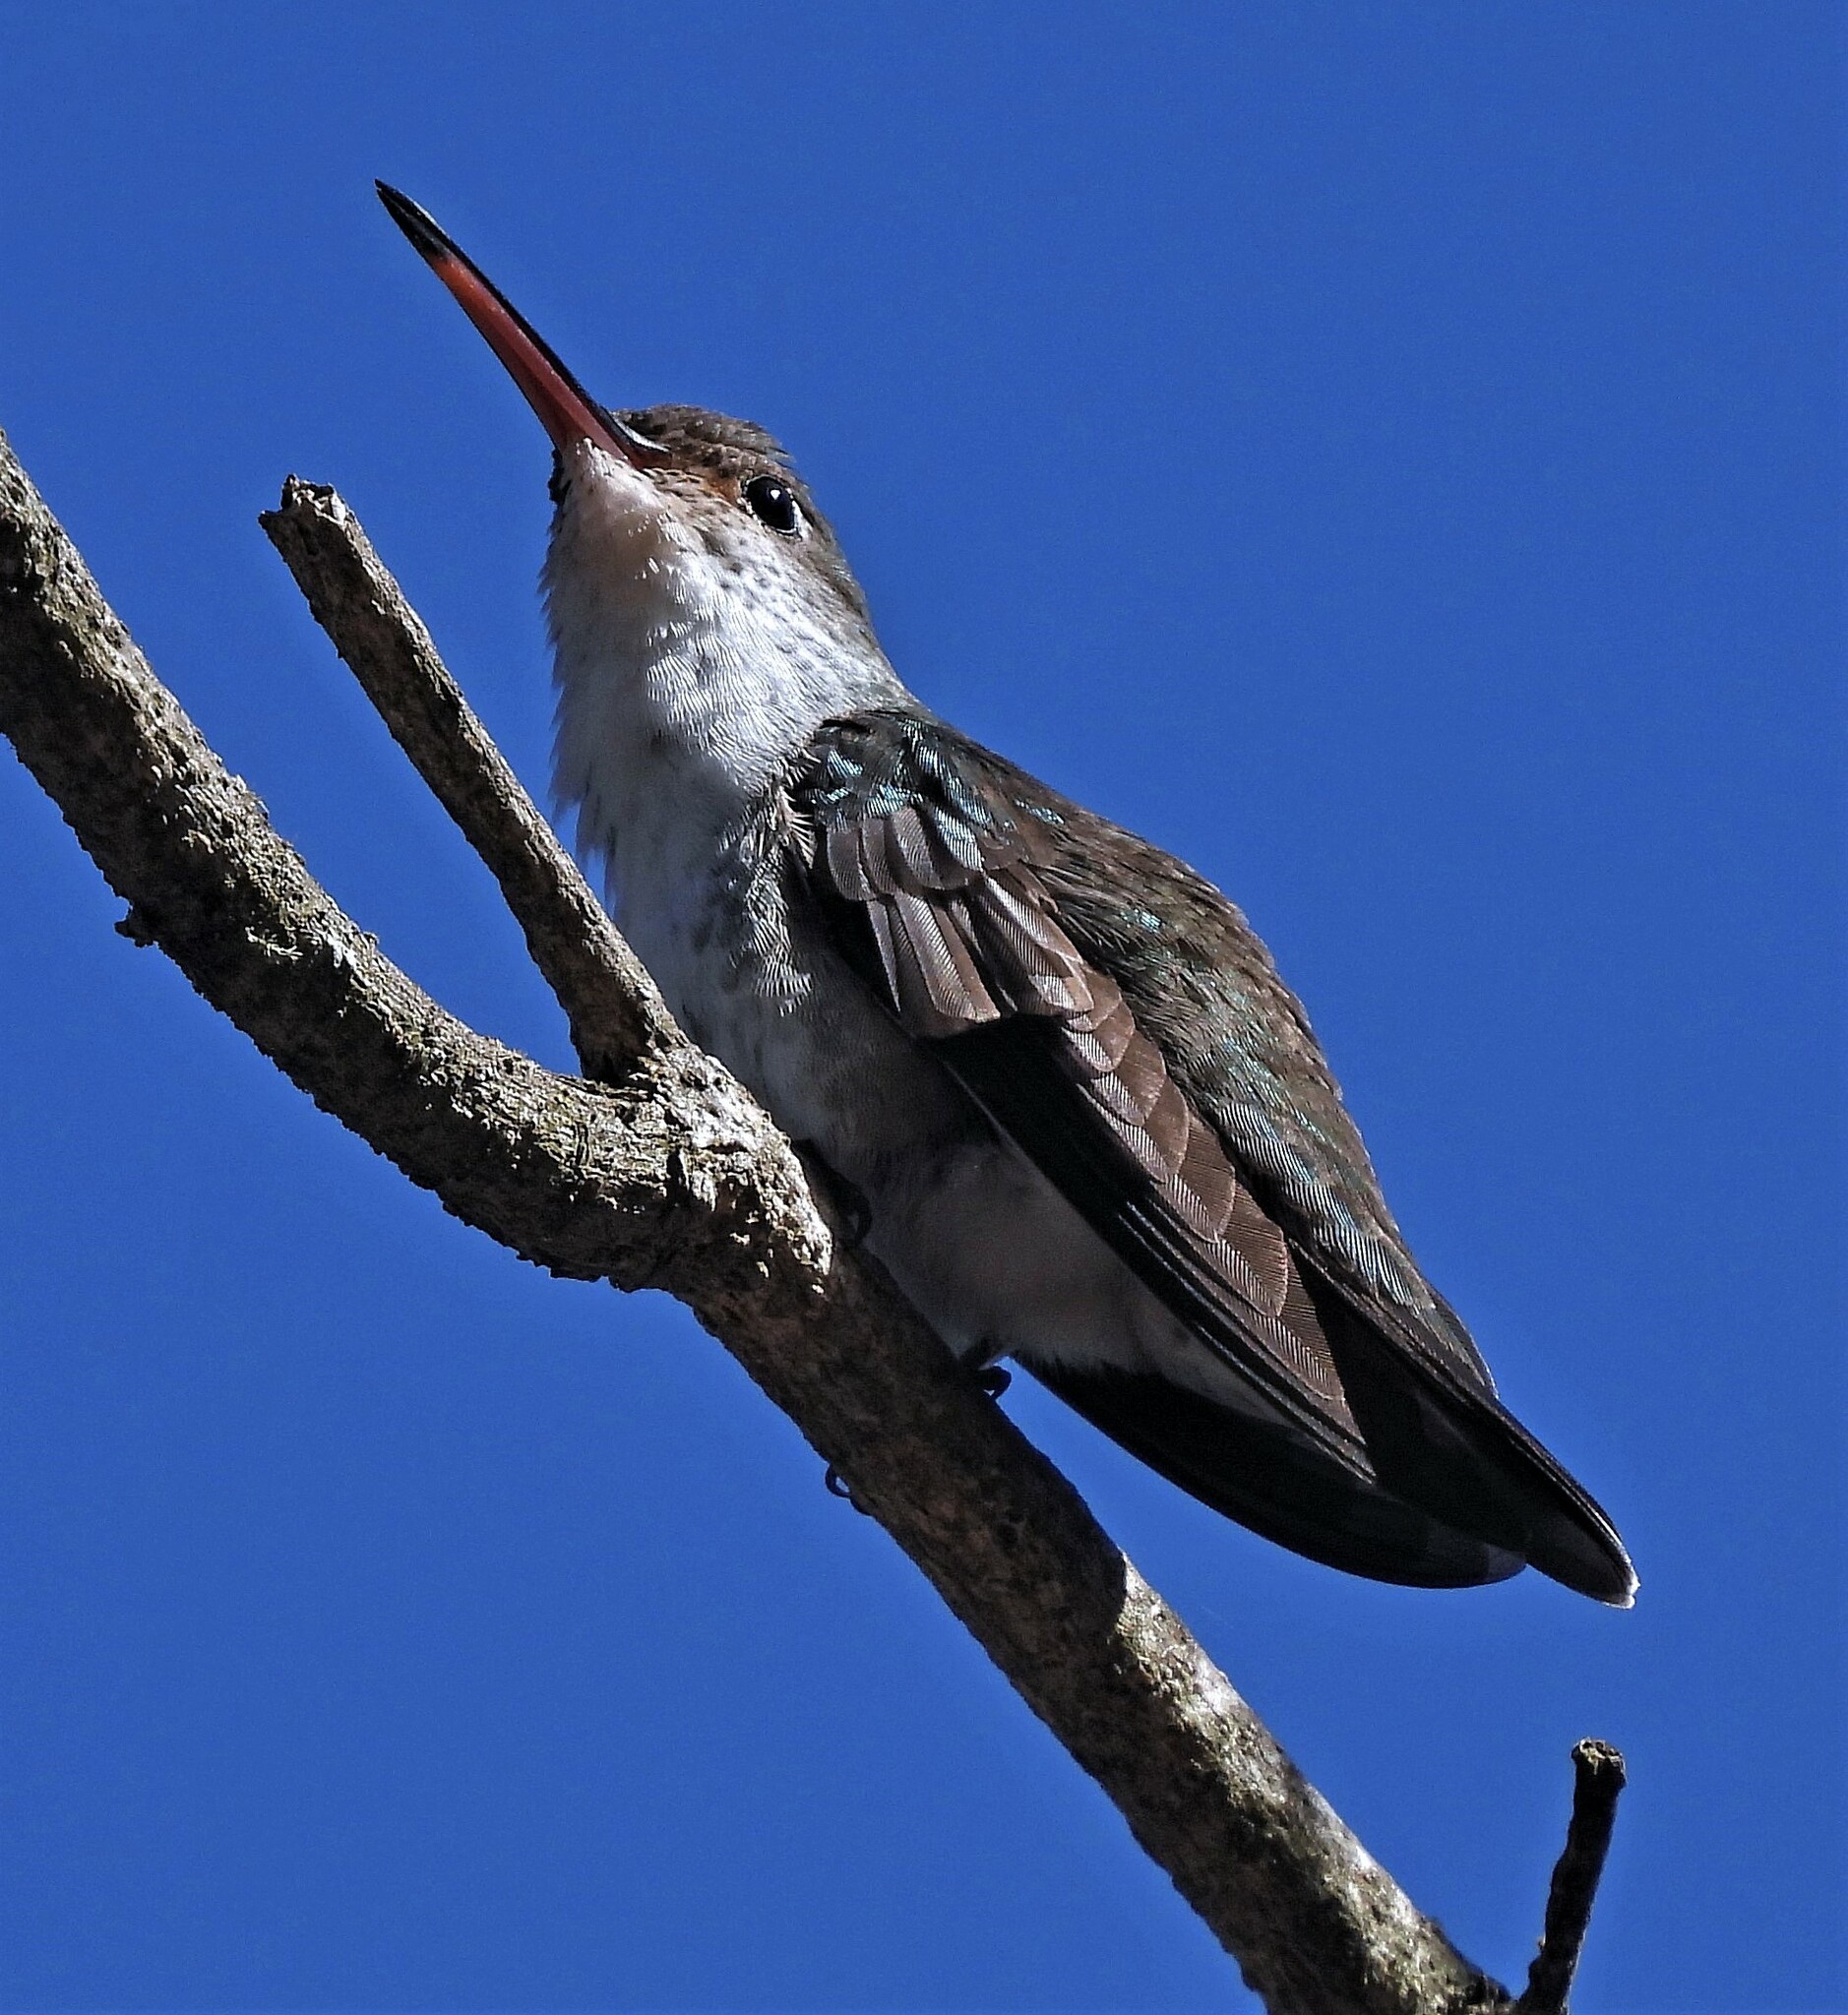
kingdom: Animalia
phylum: Chordata
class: Aves
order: Apodiformes
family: Trochilidae
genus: Elliotomyia
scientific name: Elliotomyia chionogaster
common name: White-bellied hummingbird
